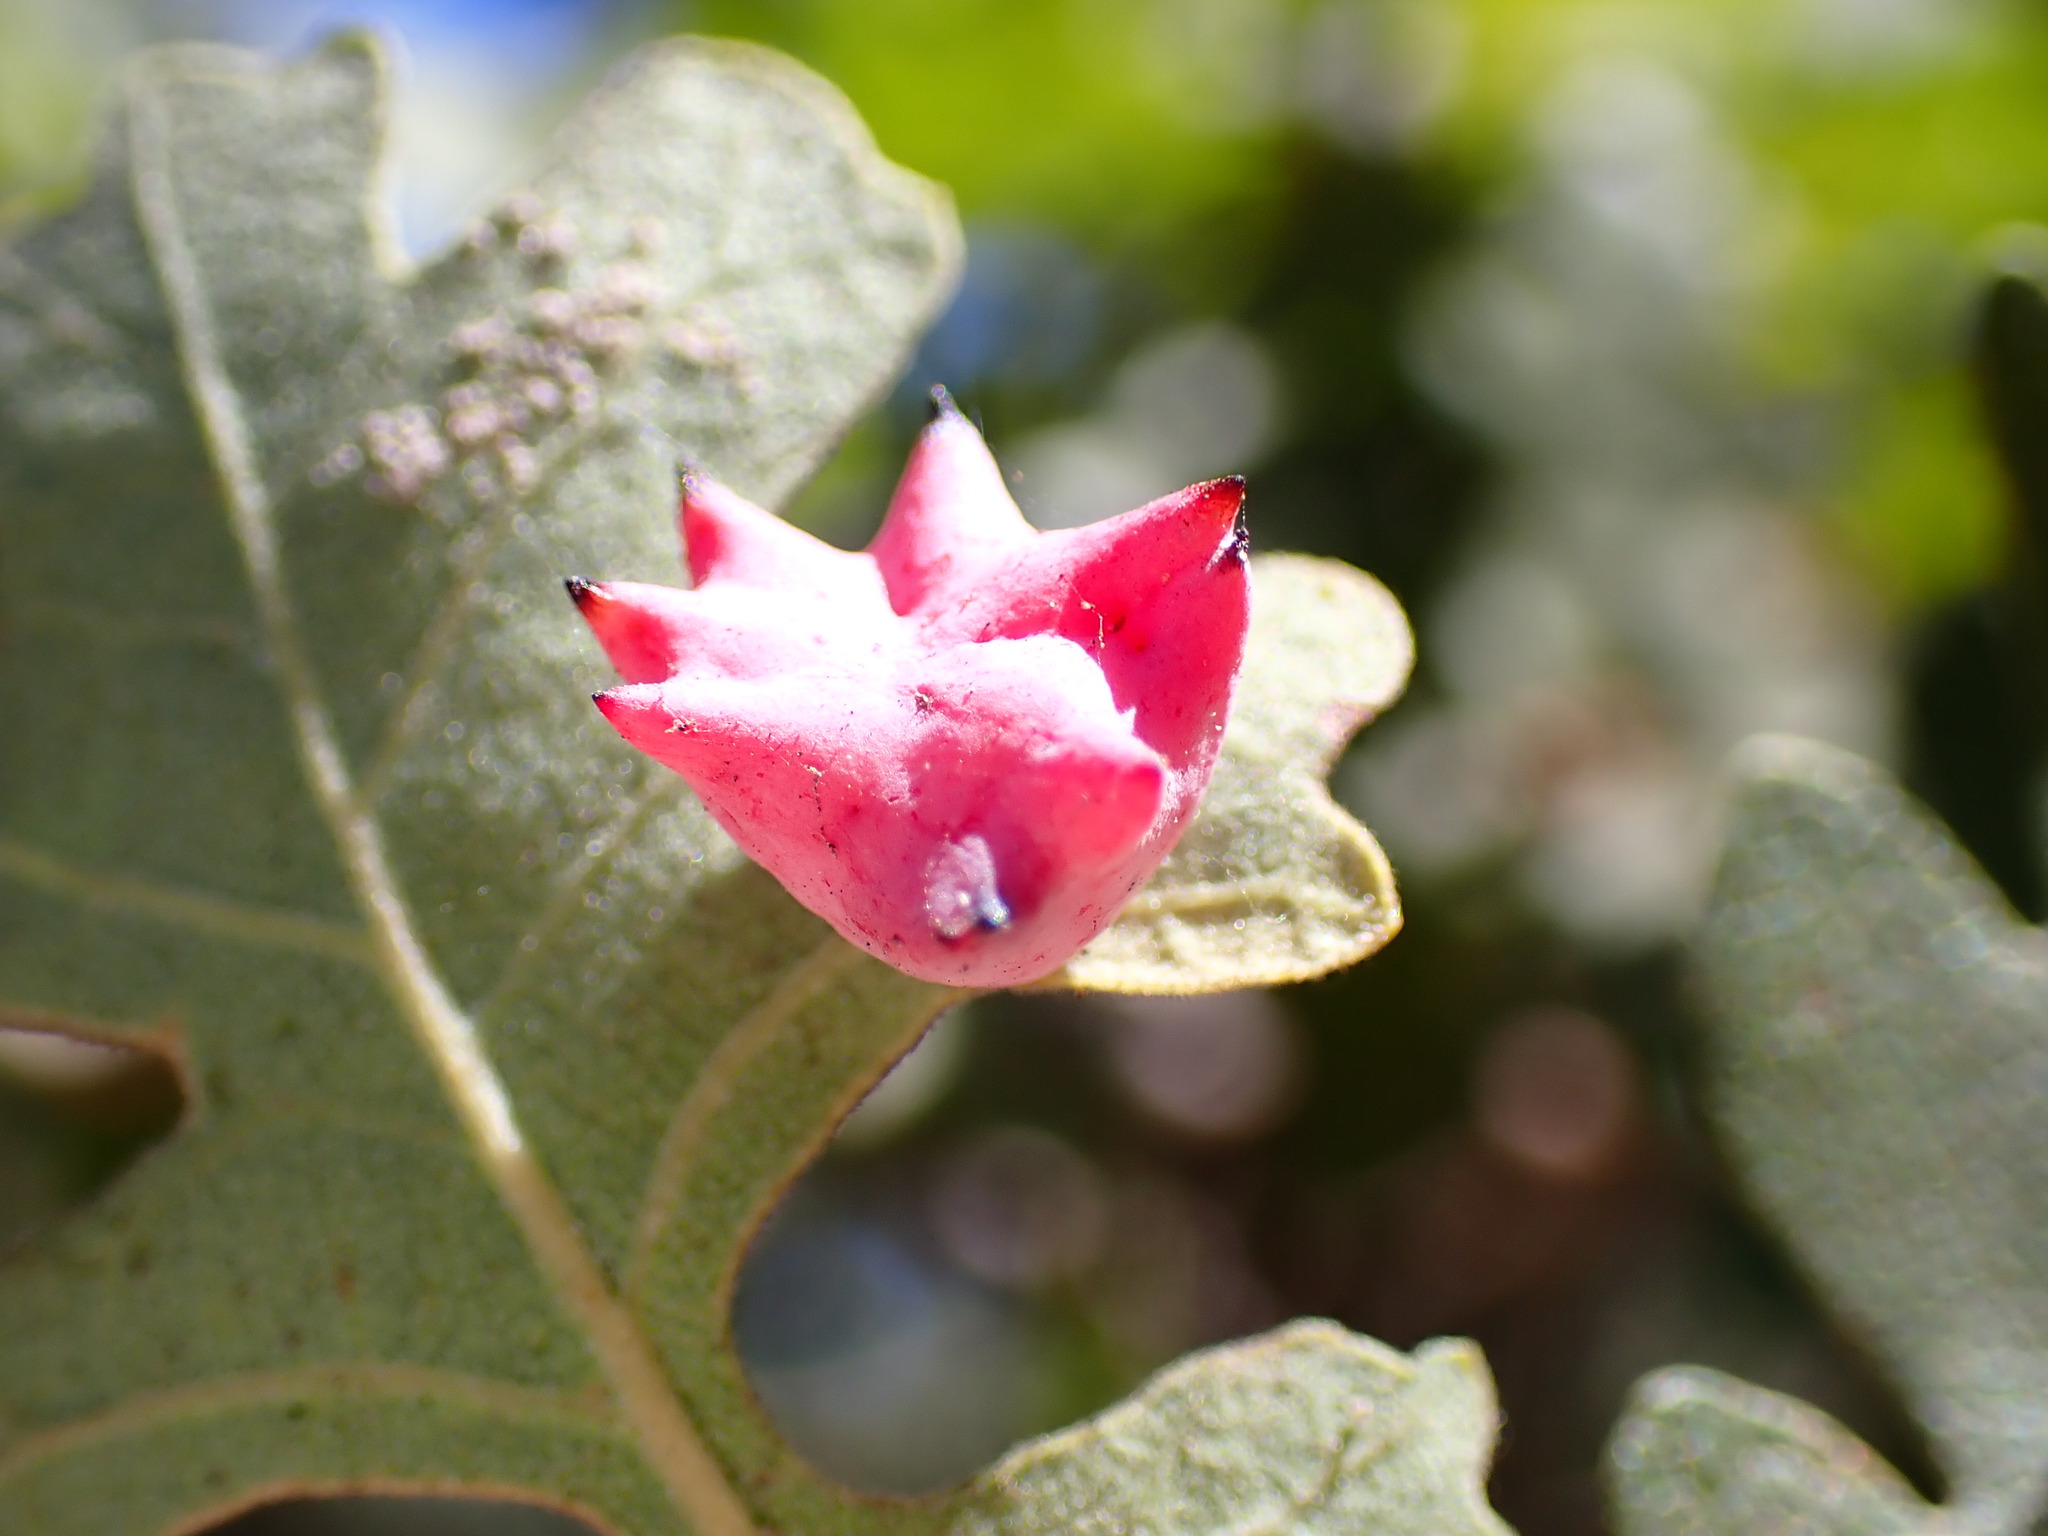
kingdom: Animalia
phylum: Arthropoda
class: Insecta
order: Hymenoptera
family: Cynipidae
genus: Cynips
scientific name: Cynips douglasi
